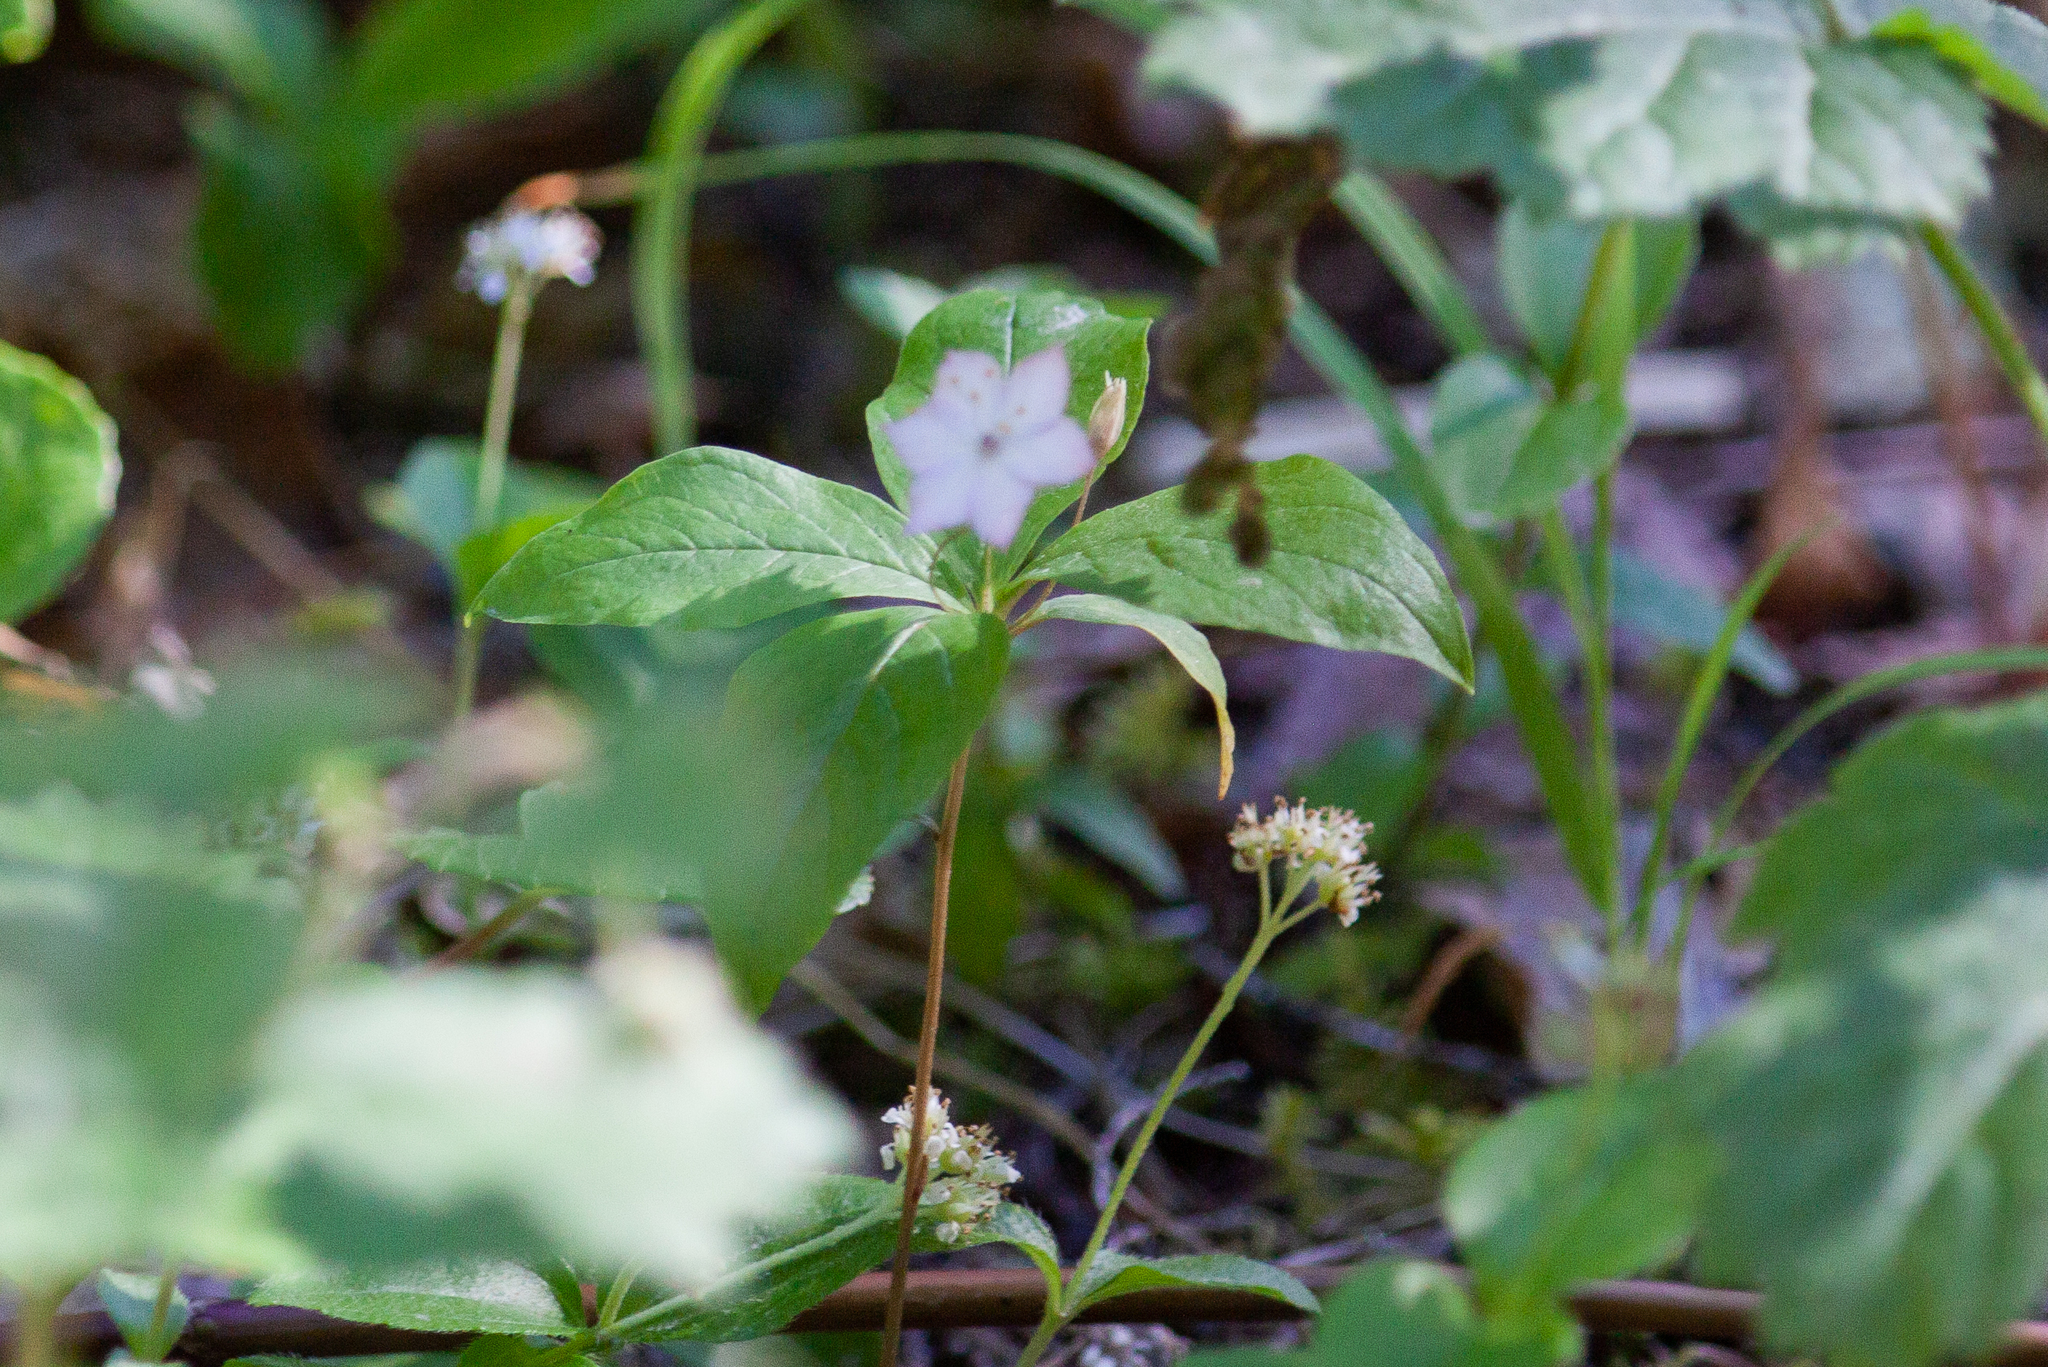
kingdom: Plantae
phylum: Tracheophyta
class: Magnoliopsida
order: Ericales
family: Primulaceae
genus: Lysimachia
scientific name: Lysimachia latifolia
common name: Pacific starflower
